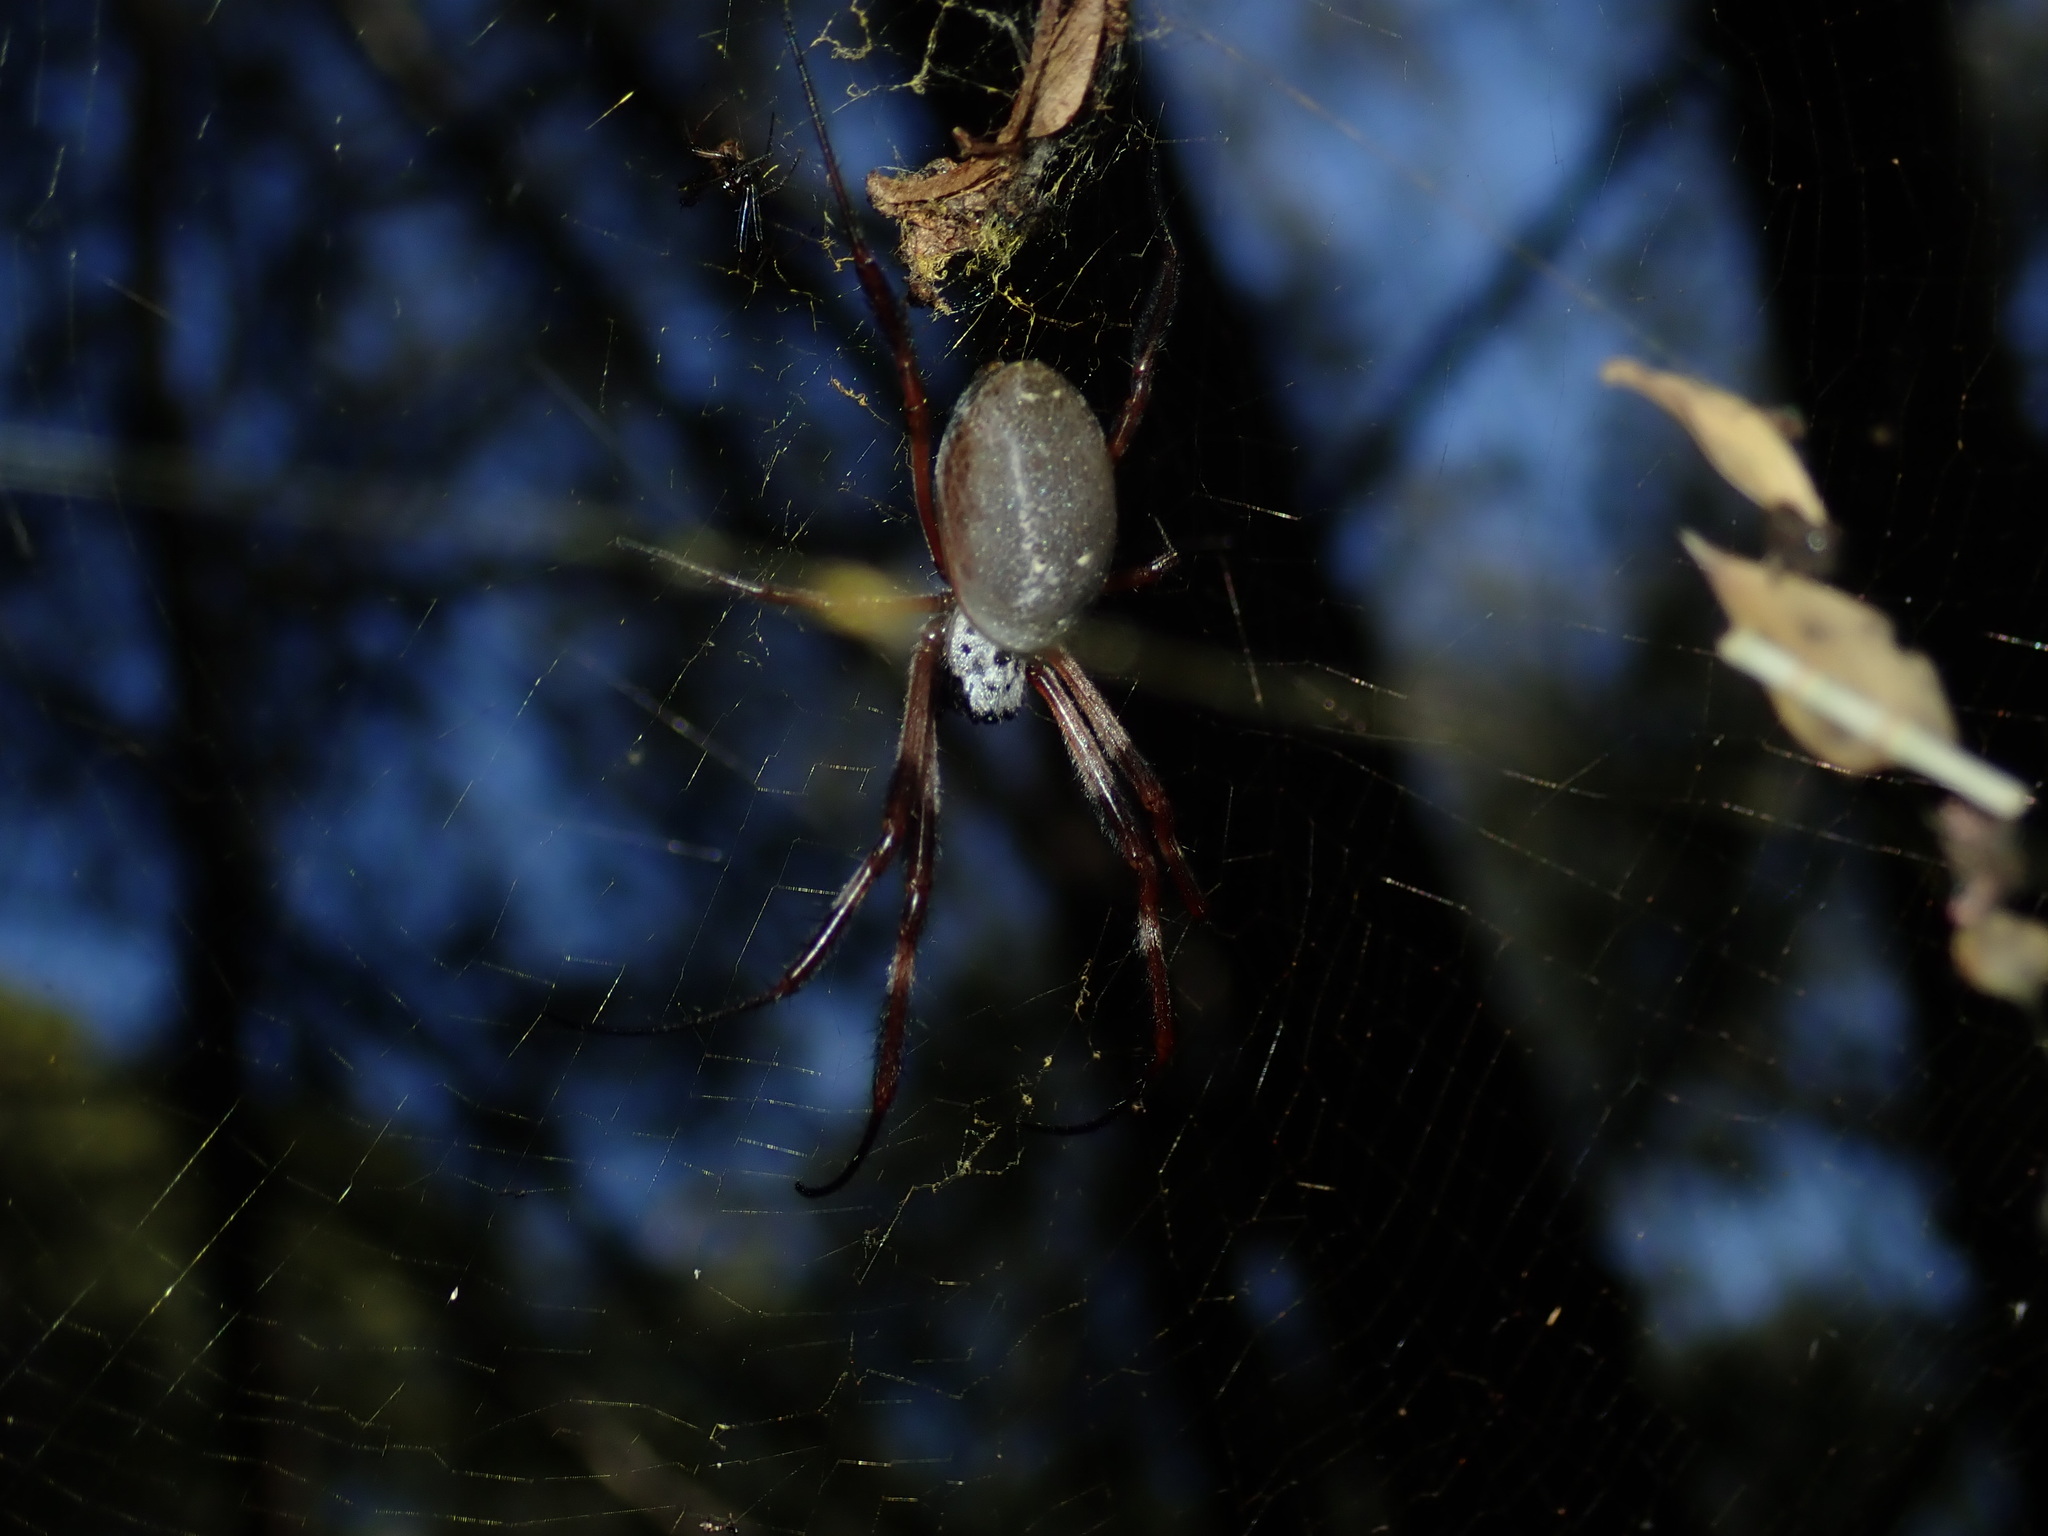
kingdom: Animalia
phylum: Arthropoda
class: Arachnida
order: Araneae
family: Araneidae
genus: Trichonephila
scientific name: Trichonephila edulis
